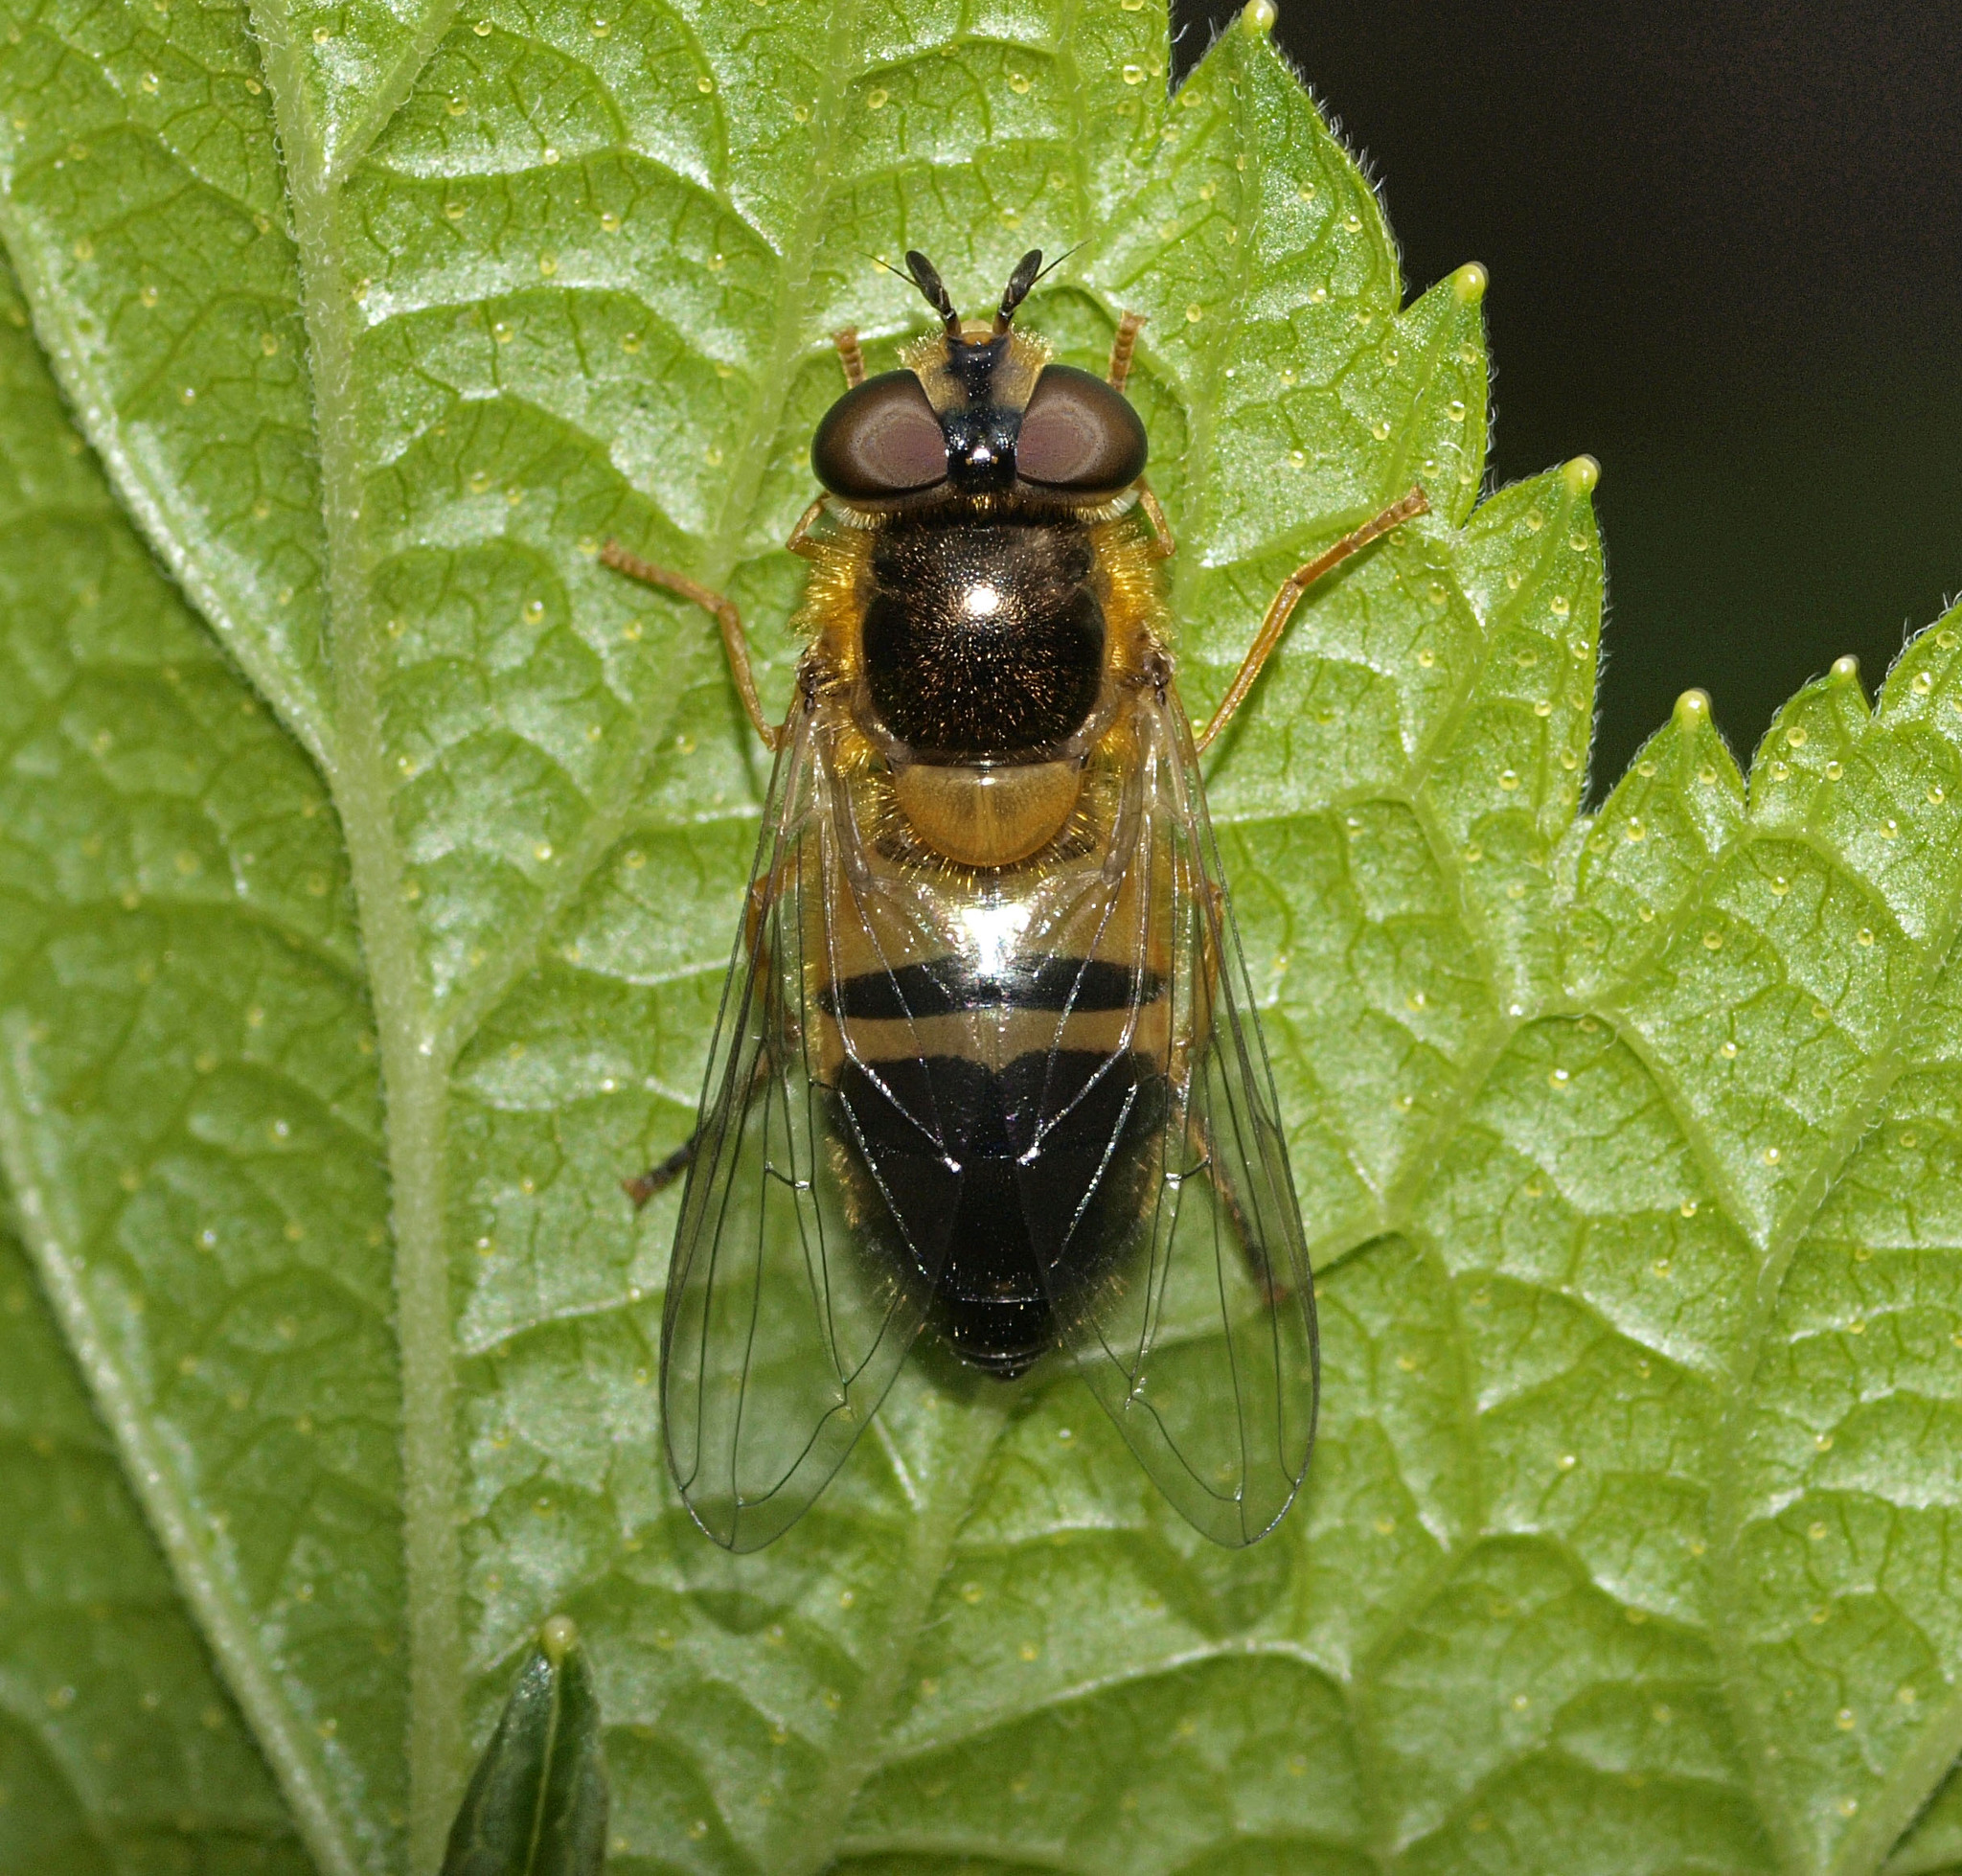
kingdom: Animalia
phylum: Arthropoda
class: Insecta
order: Diptera
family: Syrphidae
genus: Epistrophe
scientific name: Epistrophe eligans
